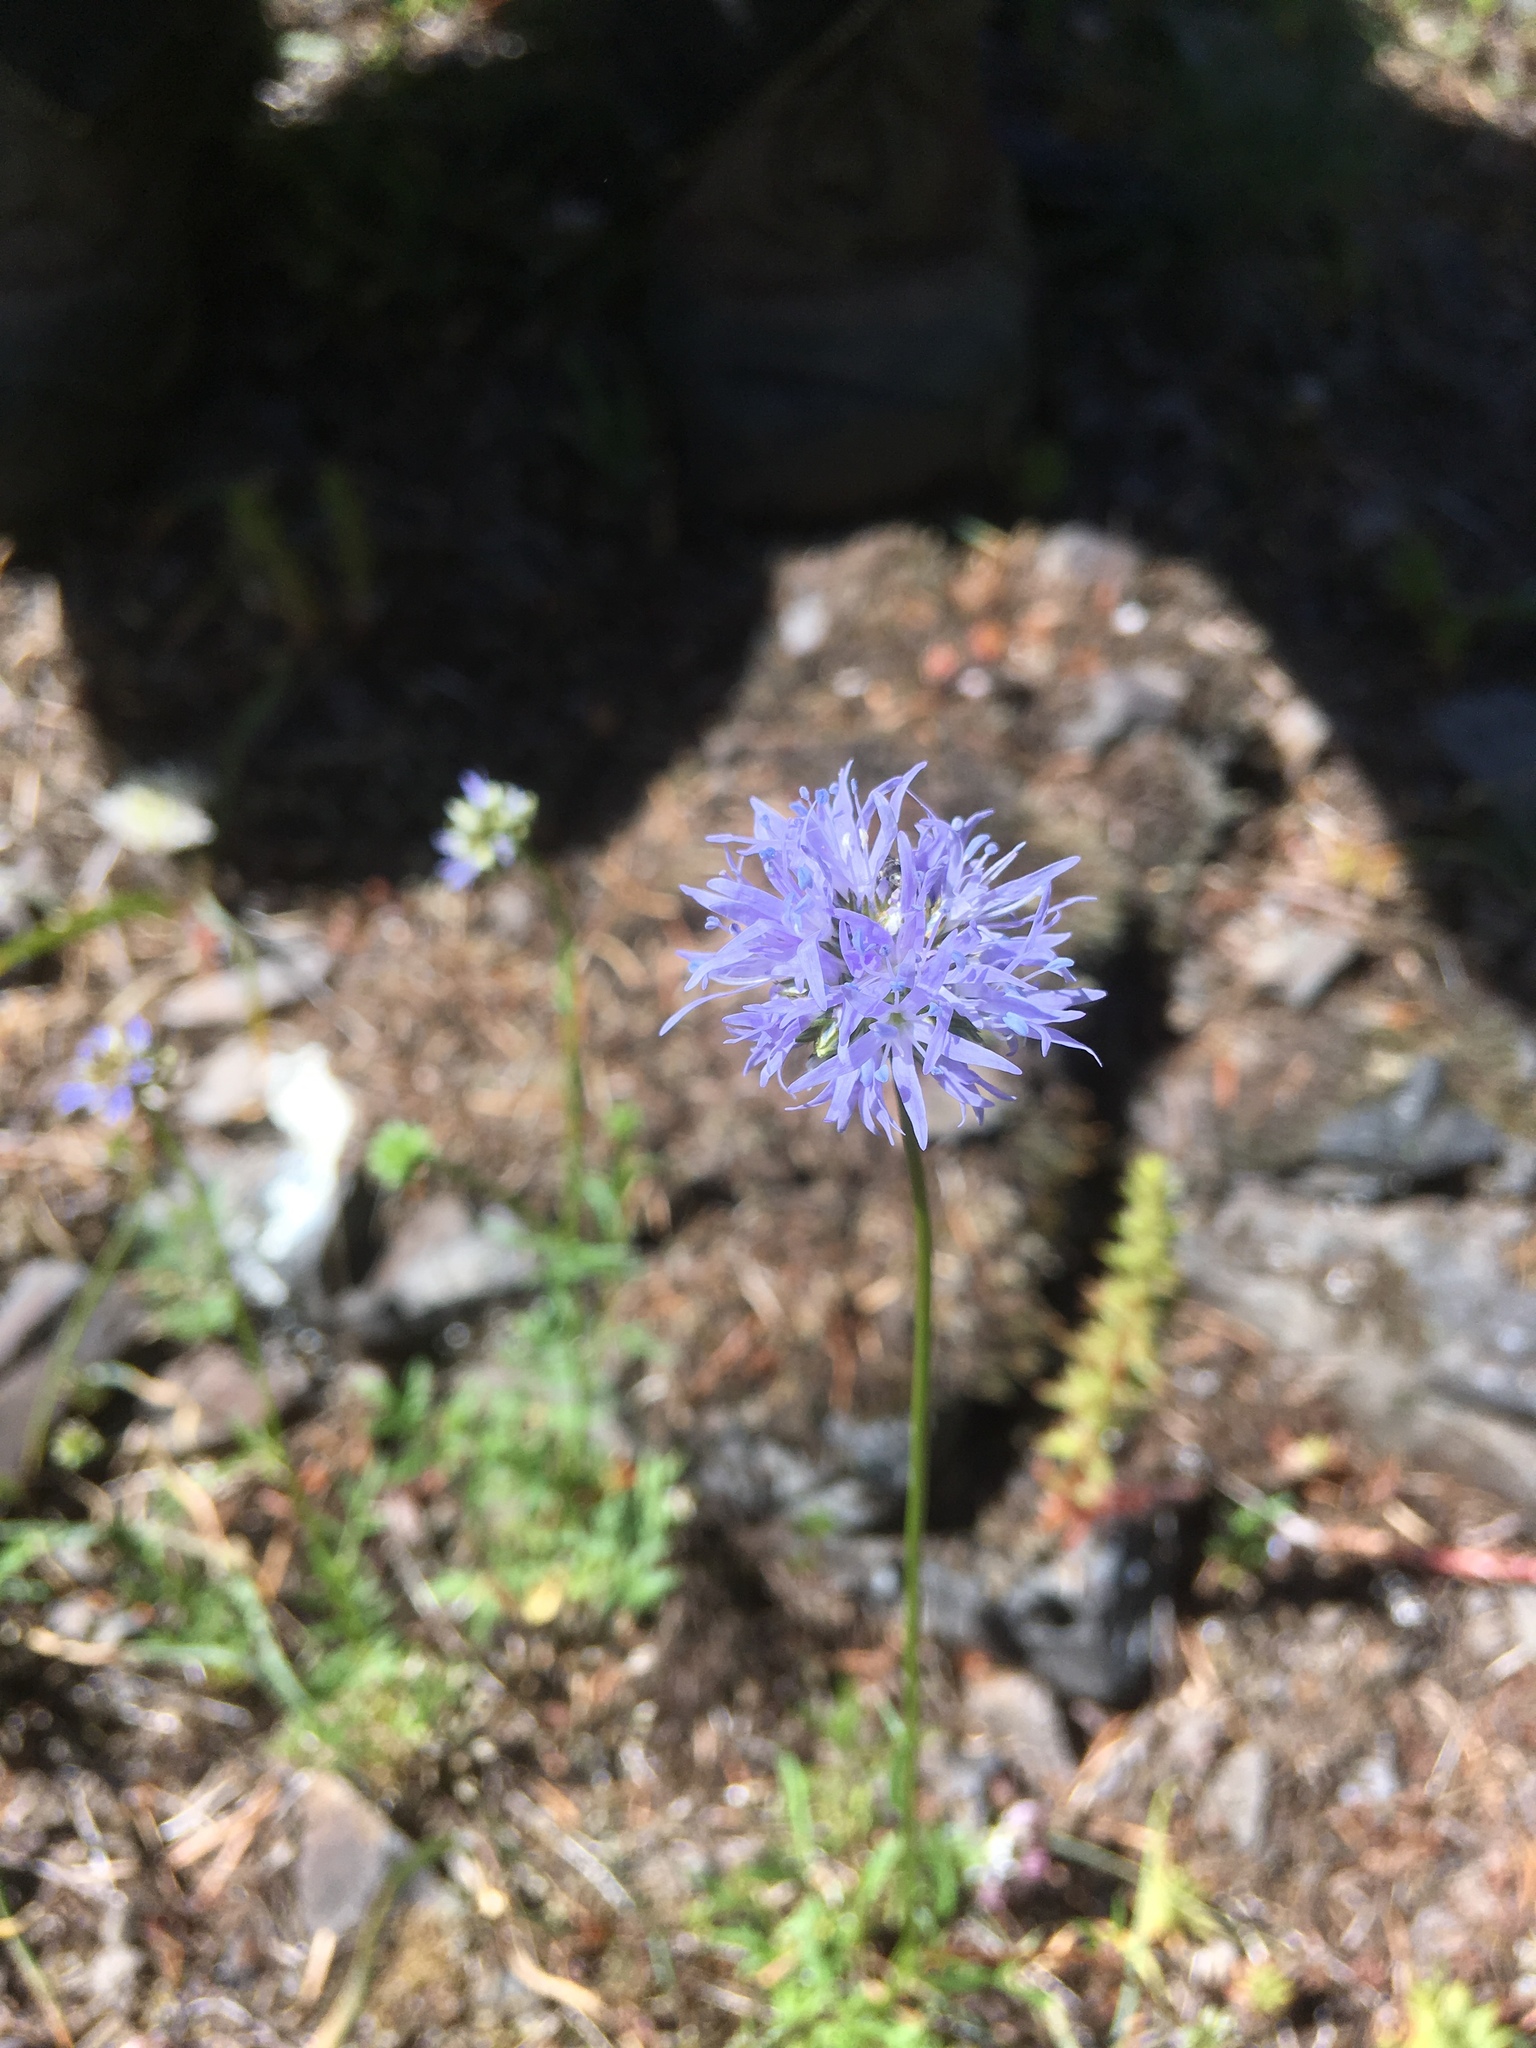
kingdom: Plantae
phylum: Tracheophyta
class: Magnoliopsida
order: Ericales
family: Polemoniaceae
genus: Gilia
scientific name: Gilia capitata
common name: Bluehead gilia
